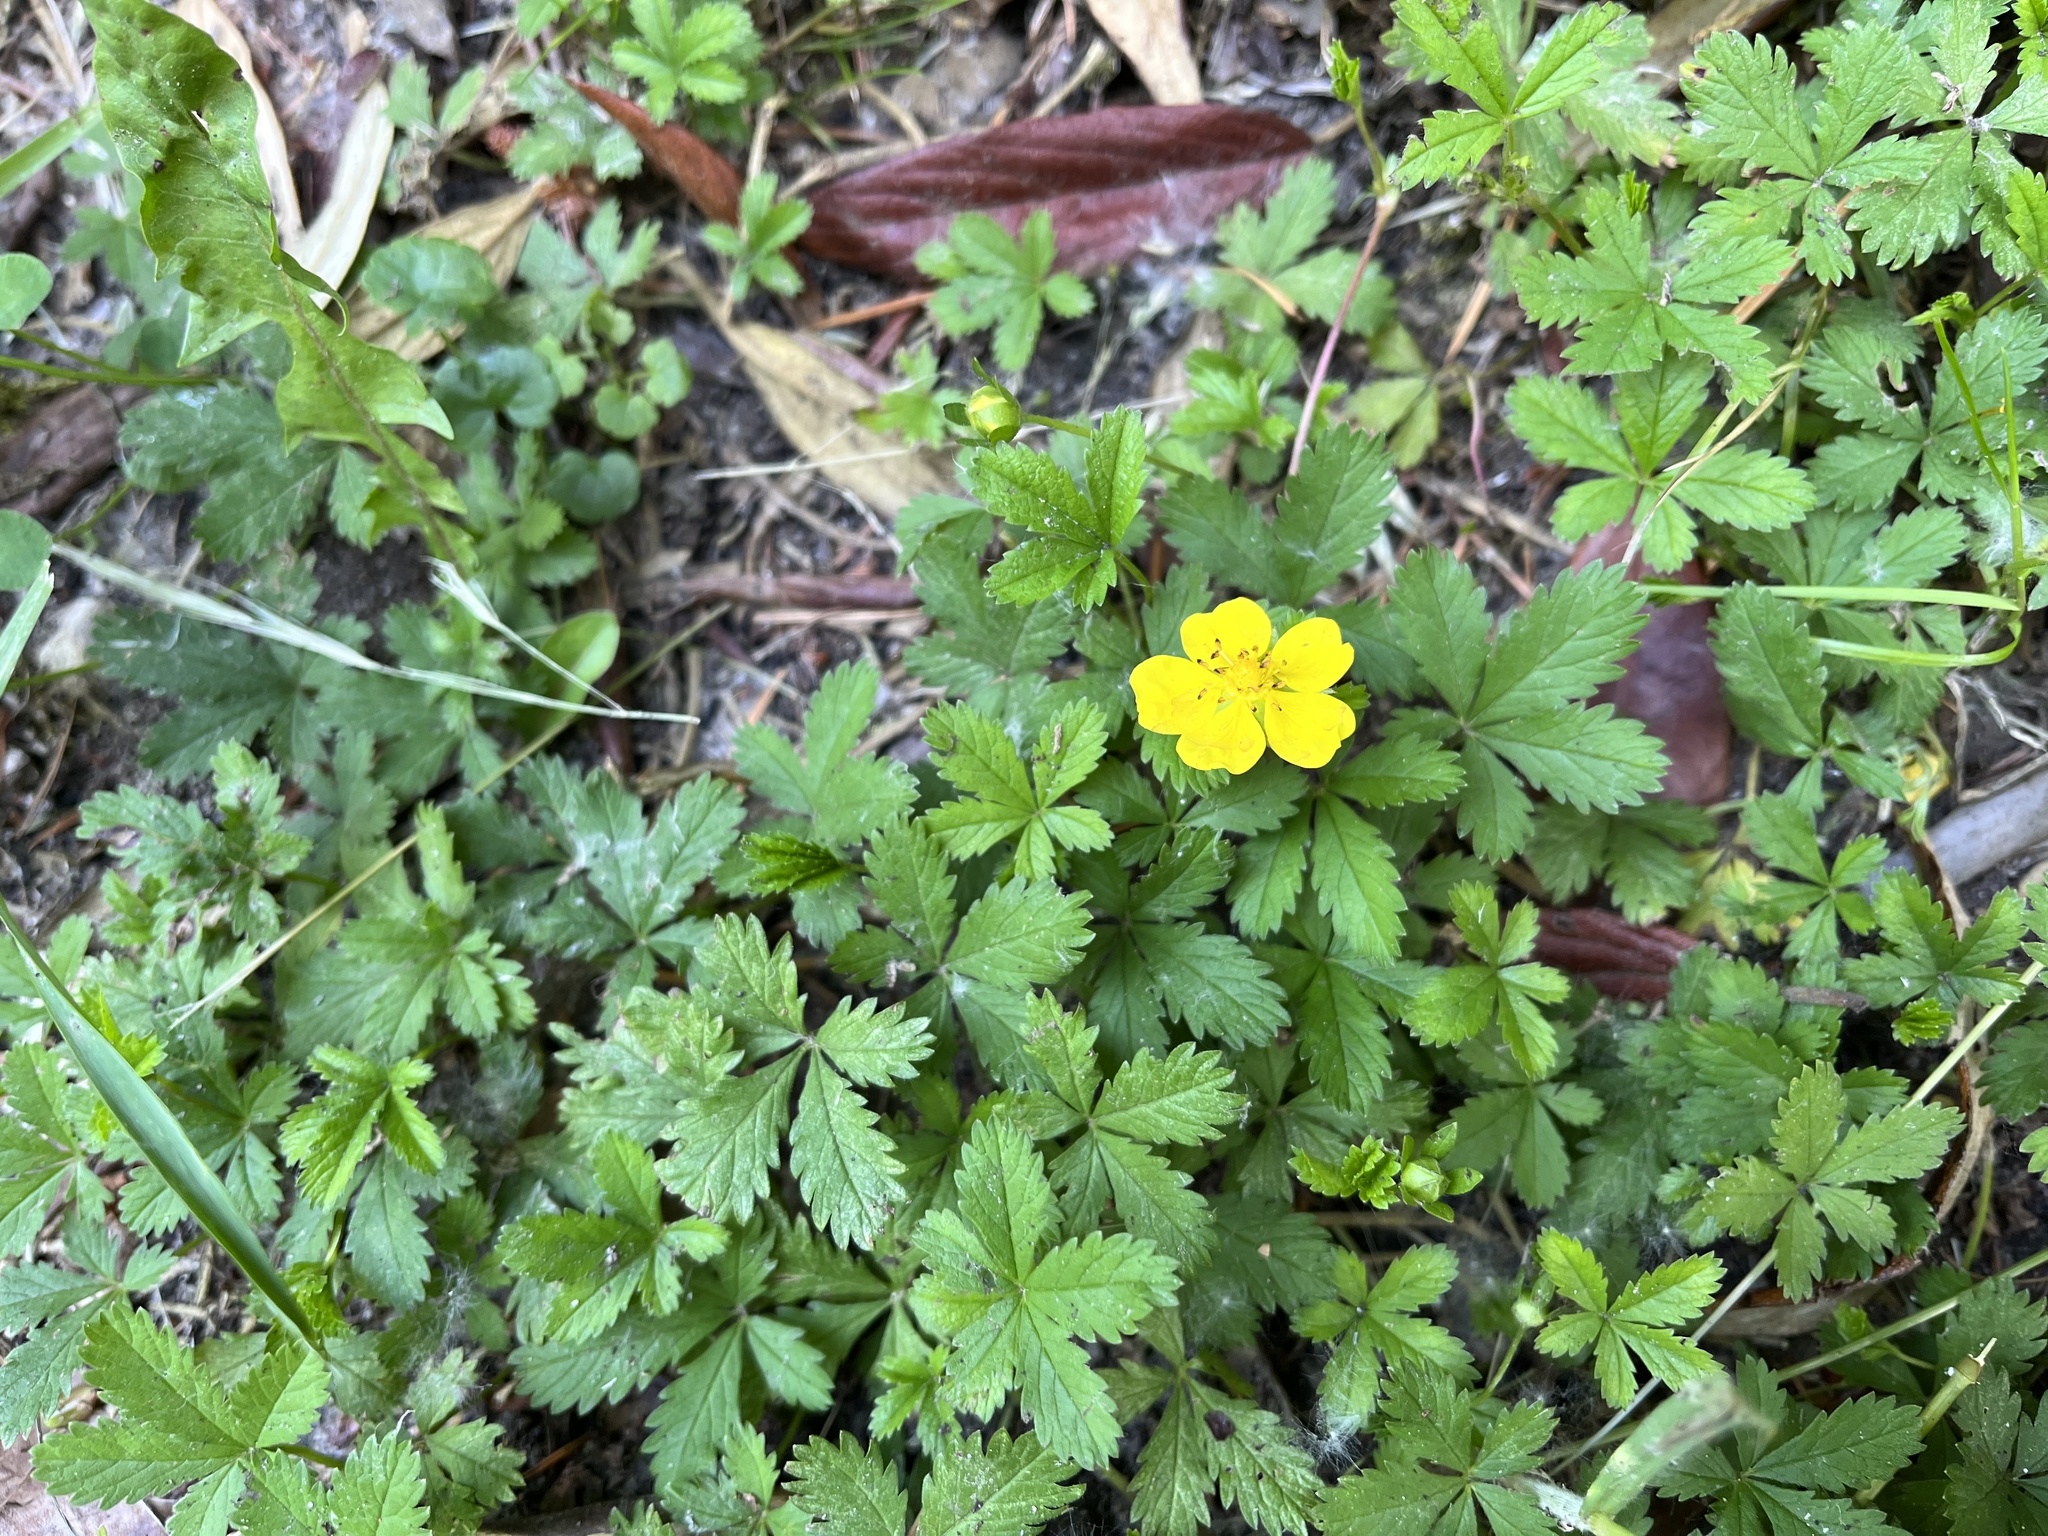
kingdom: Plantae
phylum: Tracheophyta
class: Magnoliopsida
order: Rosales
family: Rosaceae
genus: Potentilla
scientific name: Potentilla reptans
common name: Creeping cinquefoil
